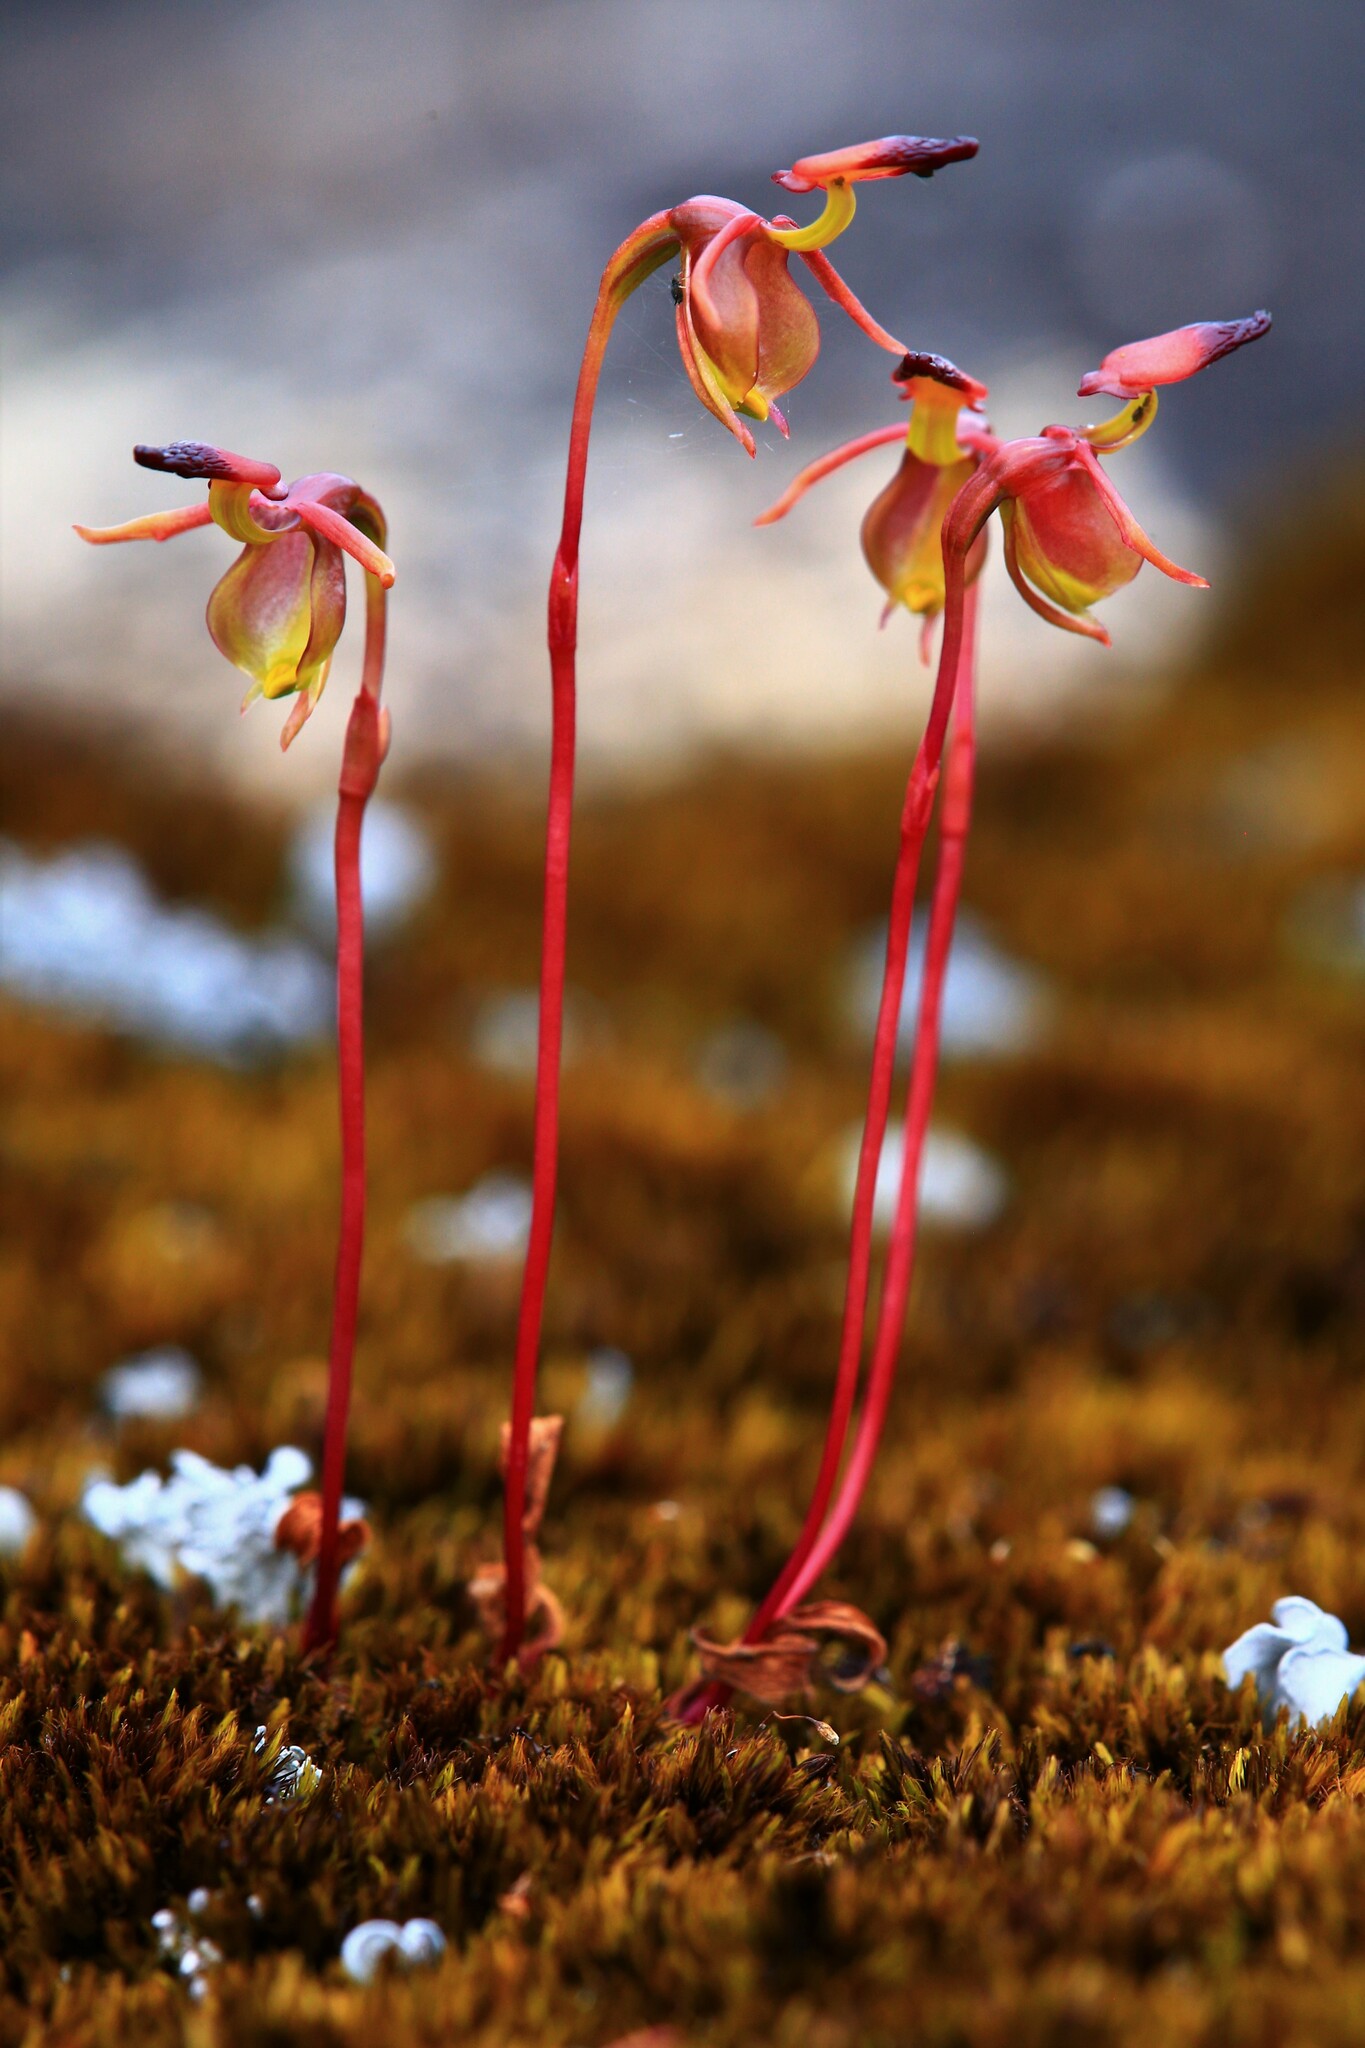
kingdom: Plantae
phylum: Tracheophyta
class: Liliopsida
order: Asparagales
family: Orchidaceae
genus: Caleana
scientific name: Caleana gracilicordata
